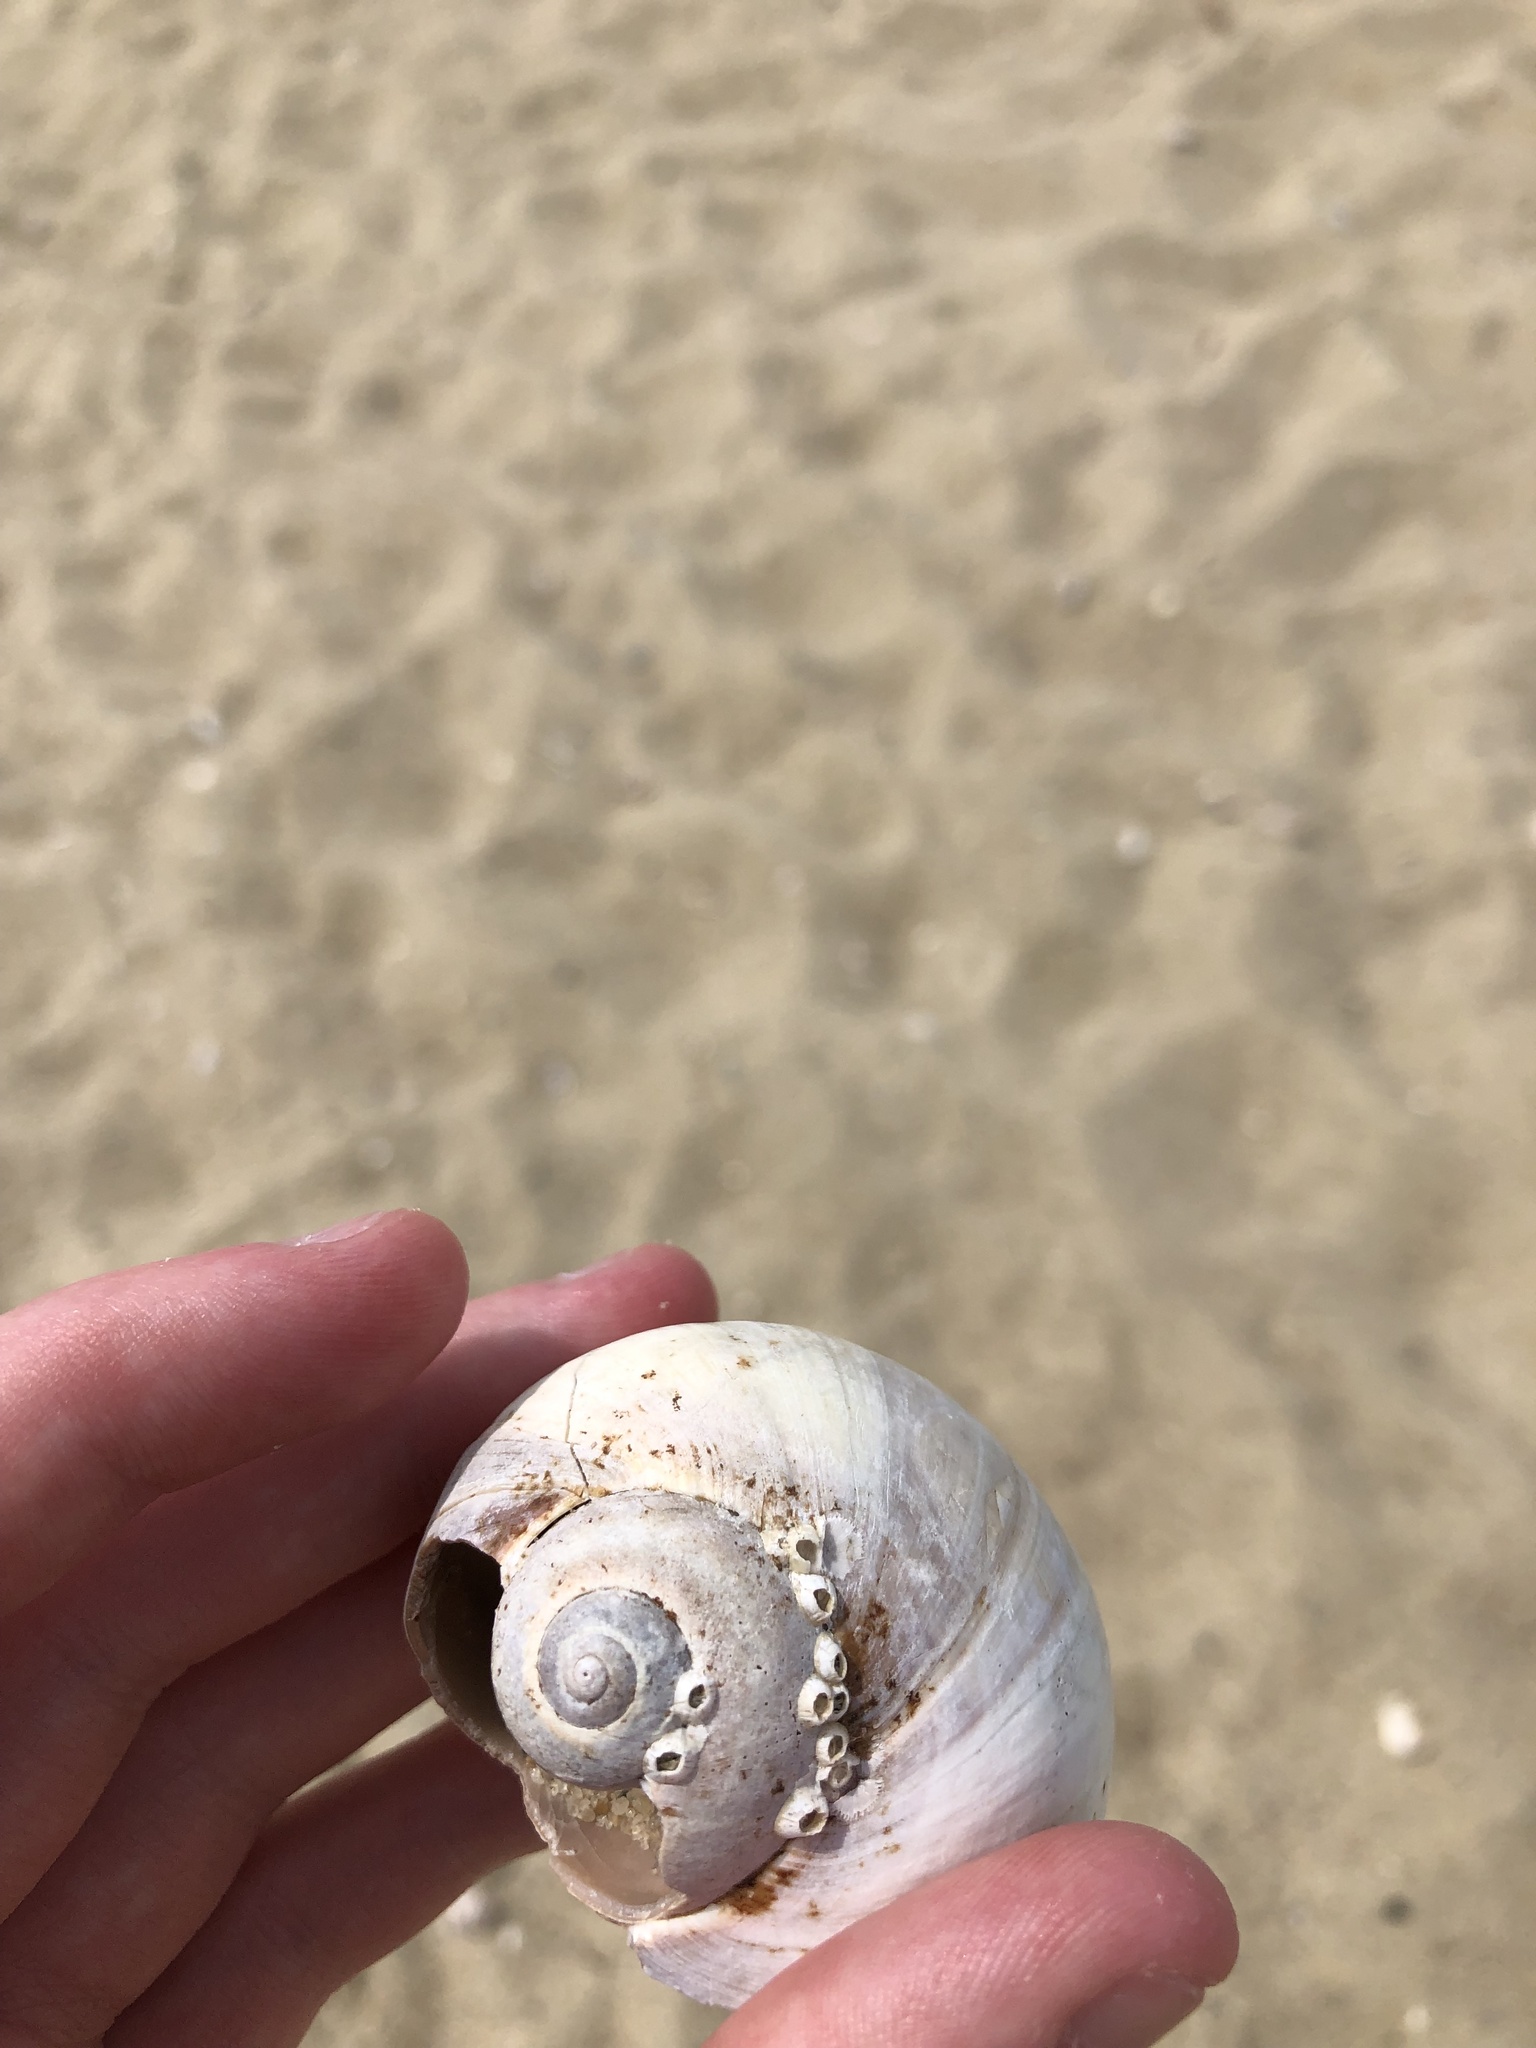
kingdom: Animalia
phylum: Mollusca
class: Gastropoda
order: Littorinimorpha
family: Naticidae
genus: Euspira
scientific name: Euspira heros
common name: Common northern moonsnail
